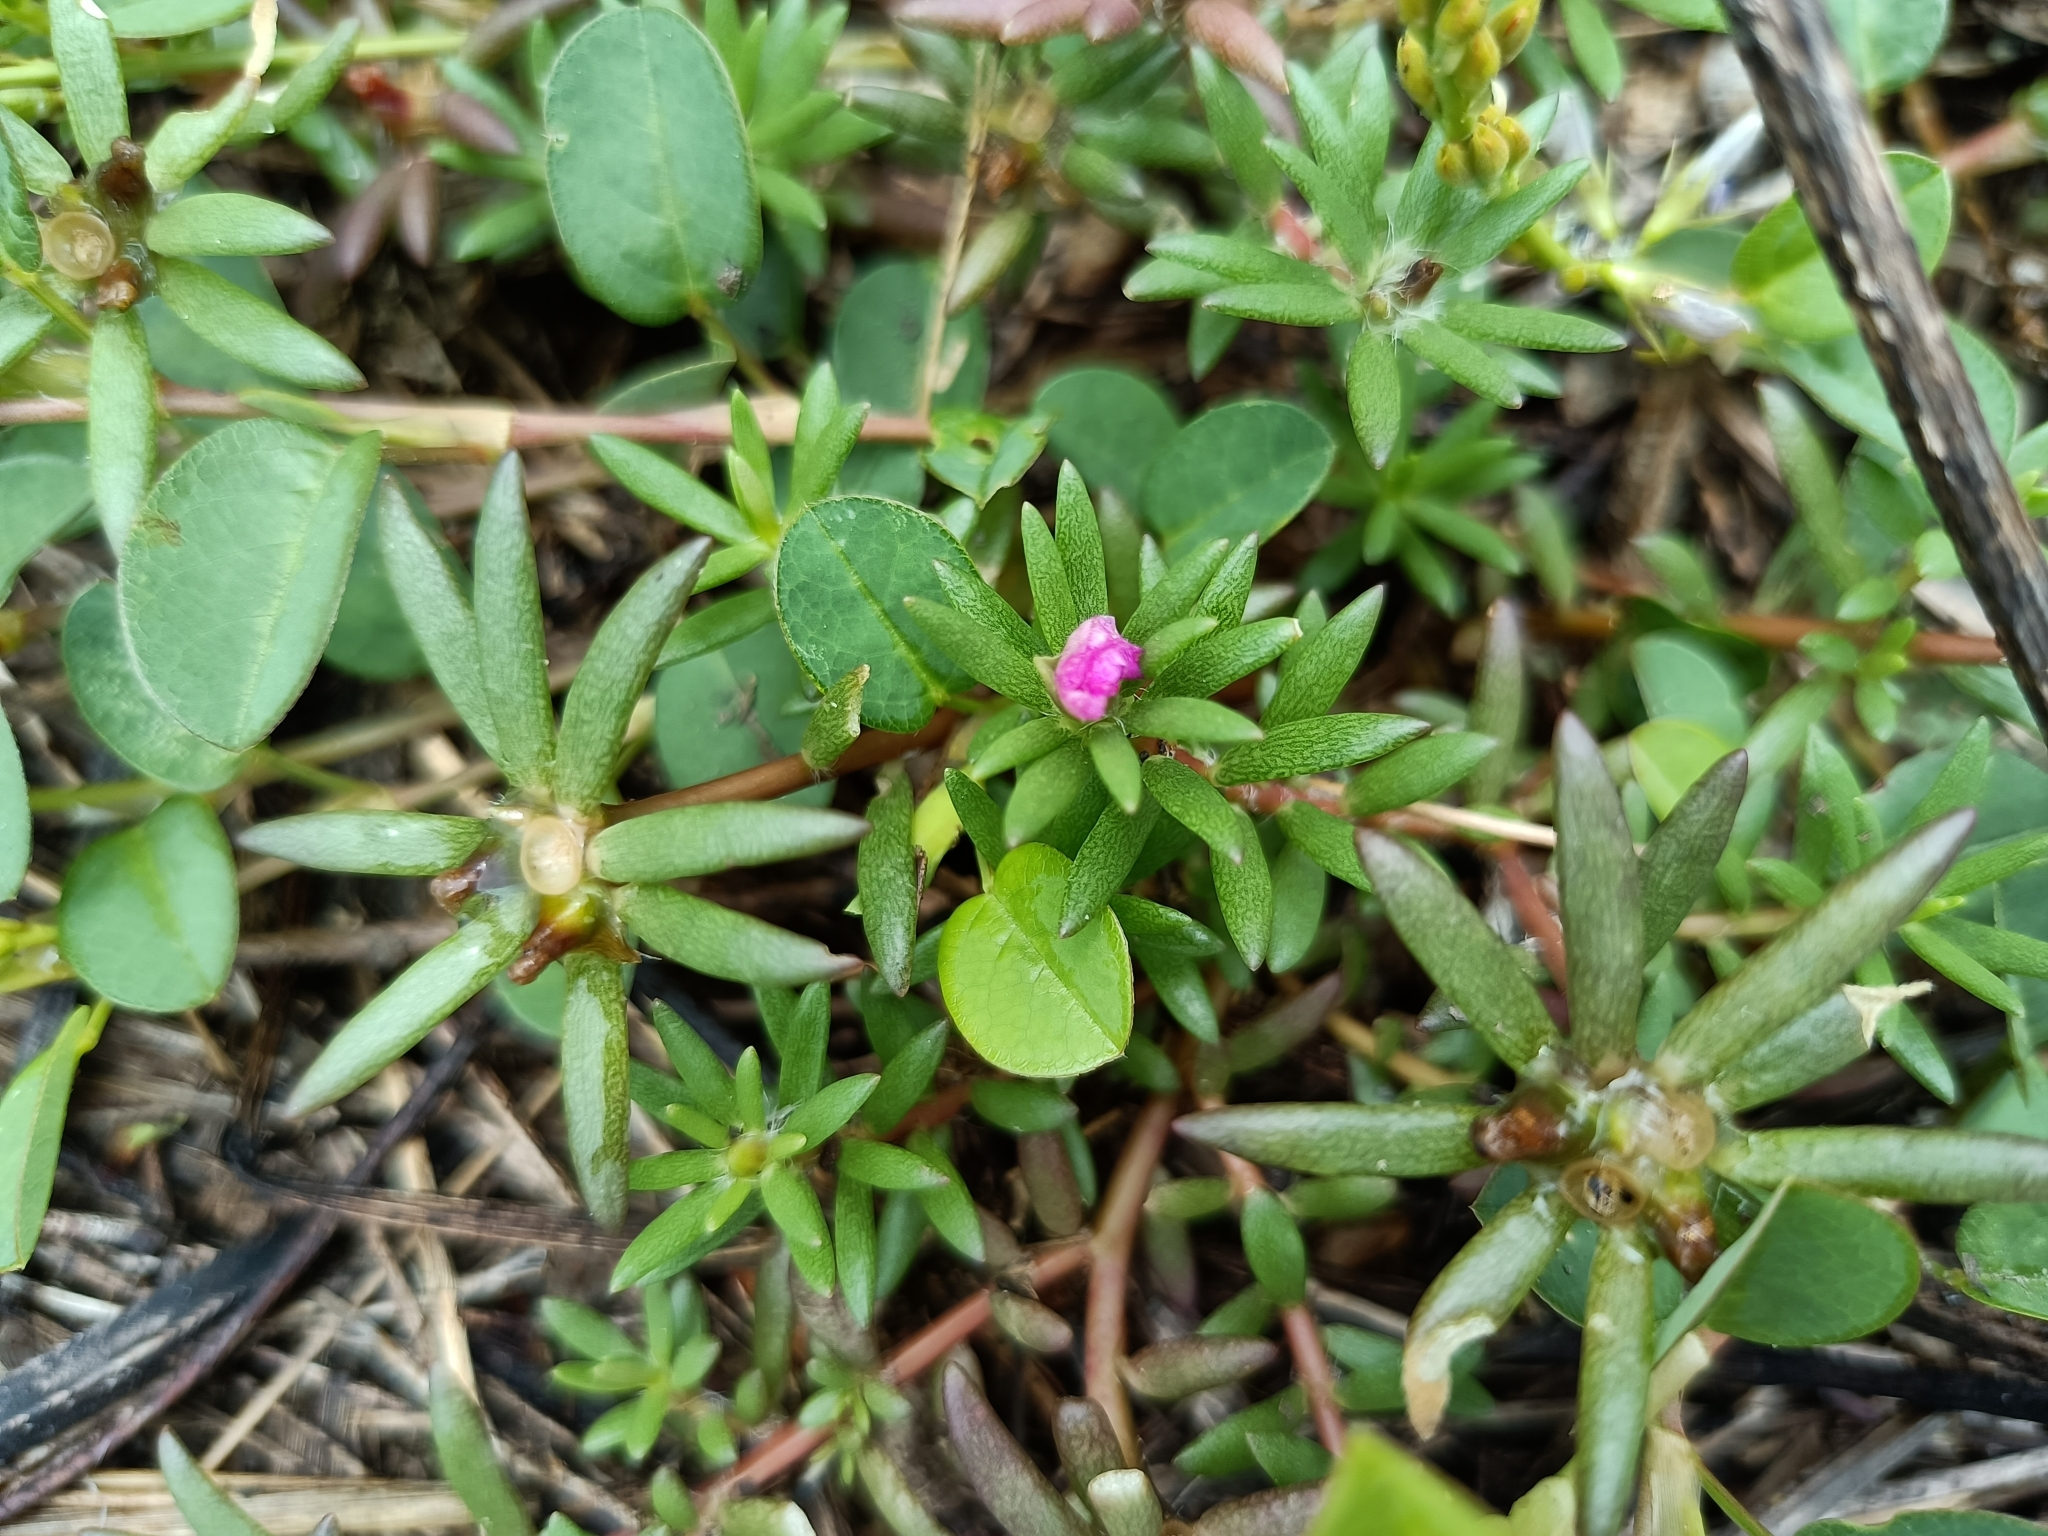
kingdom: Plantae
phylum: Tracheophyta
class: Magnoliopsida
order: Caryophyllales
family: Portulacaceae
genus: Portulaca
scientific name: Portulaca pilosa
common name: Kiss me quick
